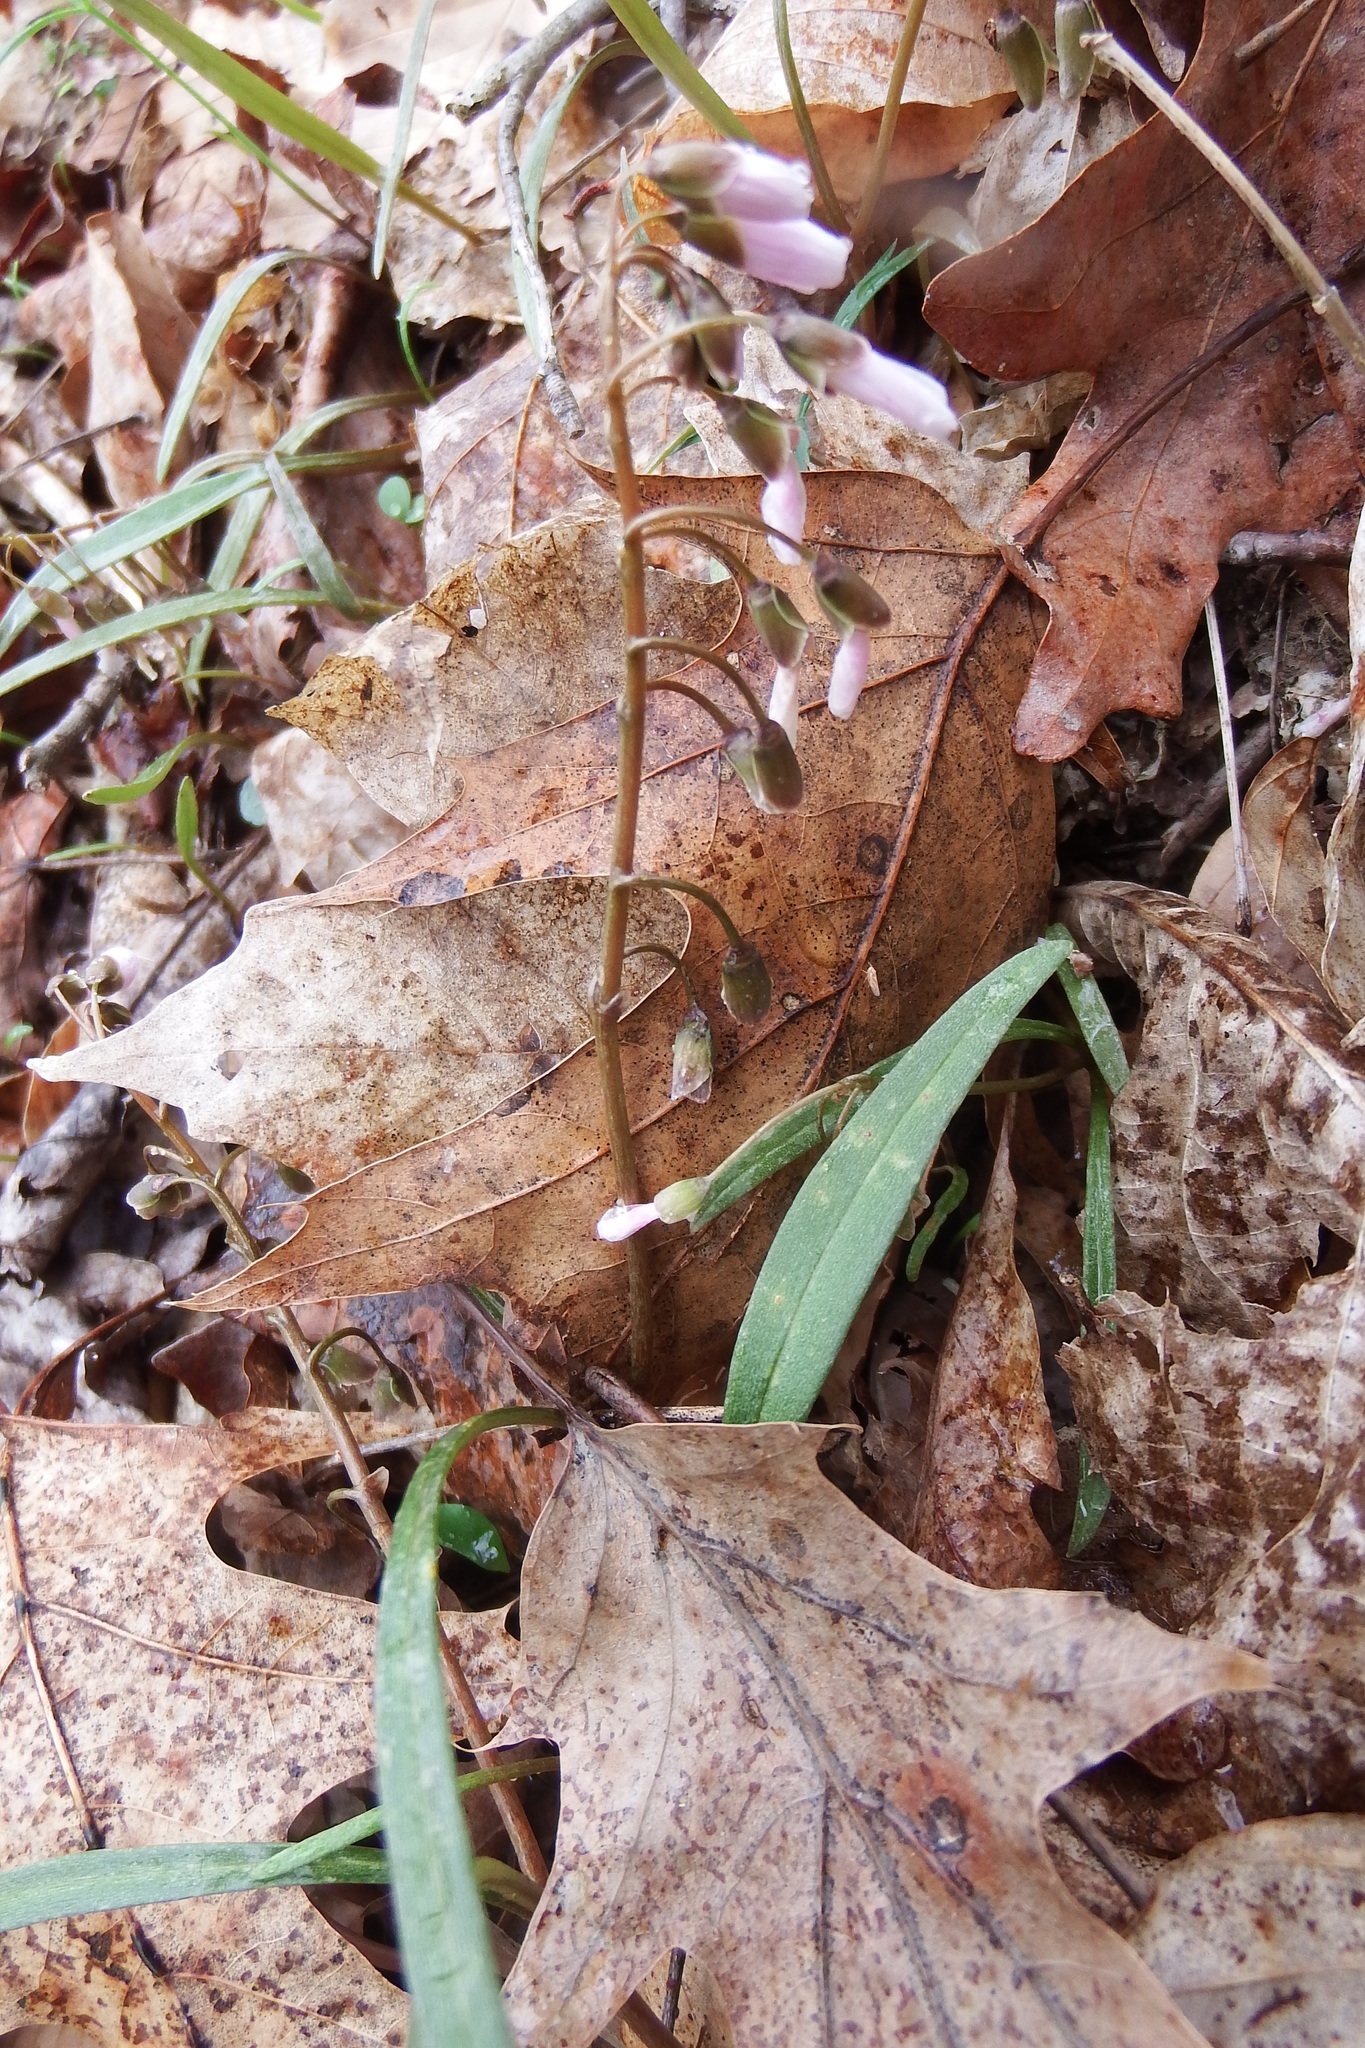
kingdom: Plantae
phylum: Tracheophyta
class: Magnoliopsida
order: Caryophyllales
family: Montiaceae
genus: Claytonia
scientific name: Claytonia virginica
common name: Virginia springbeauty
